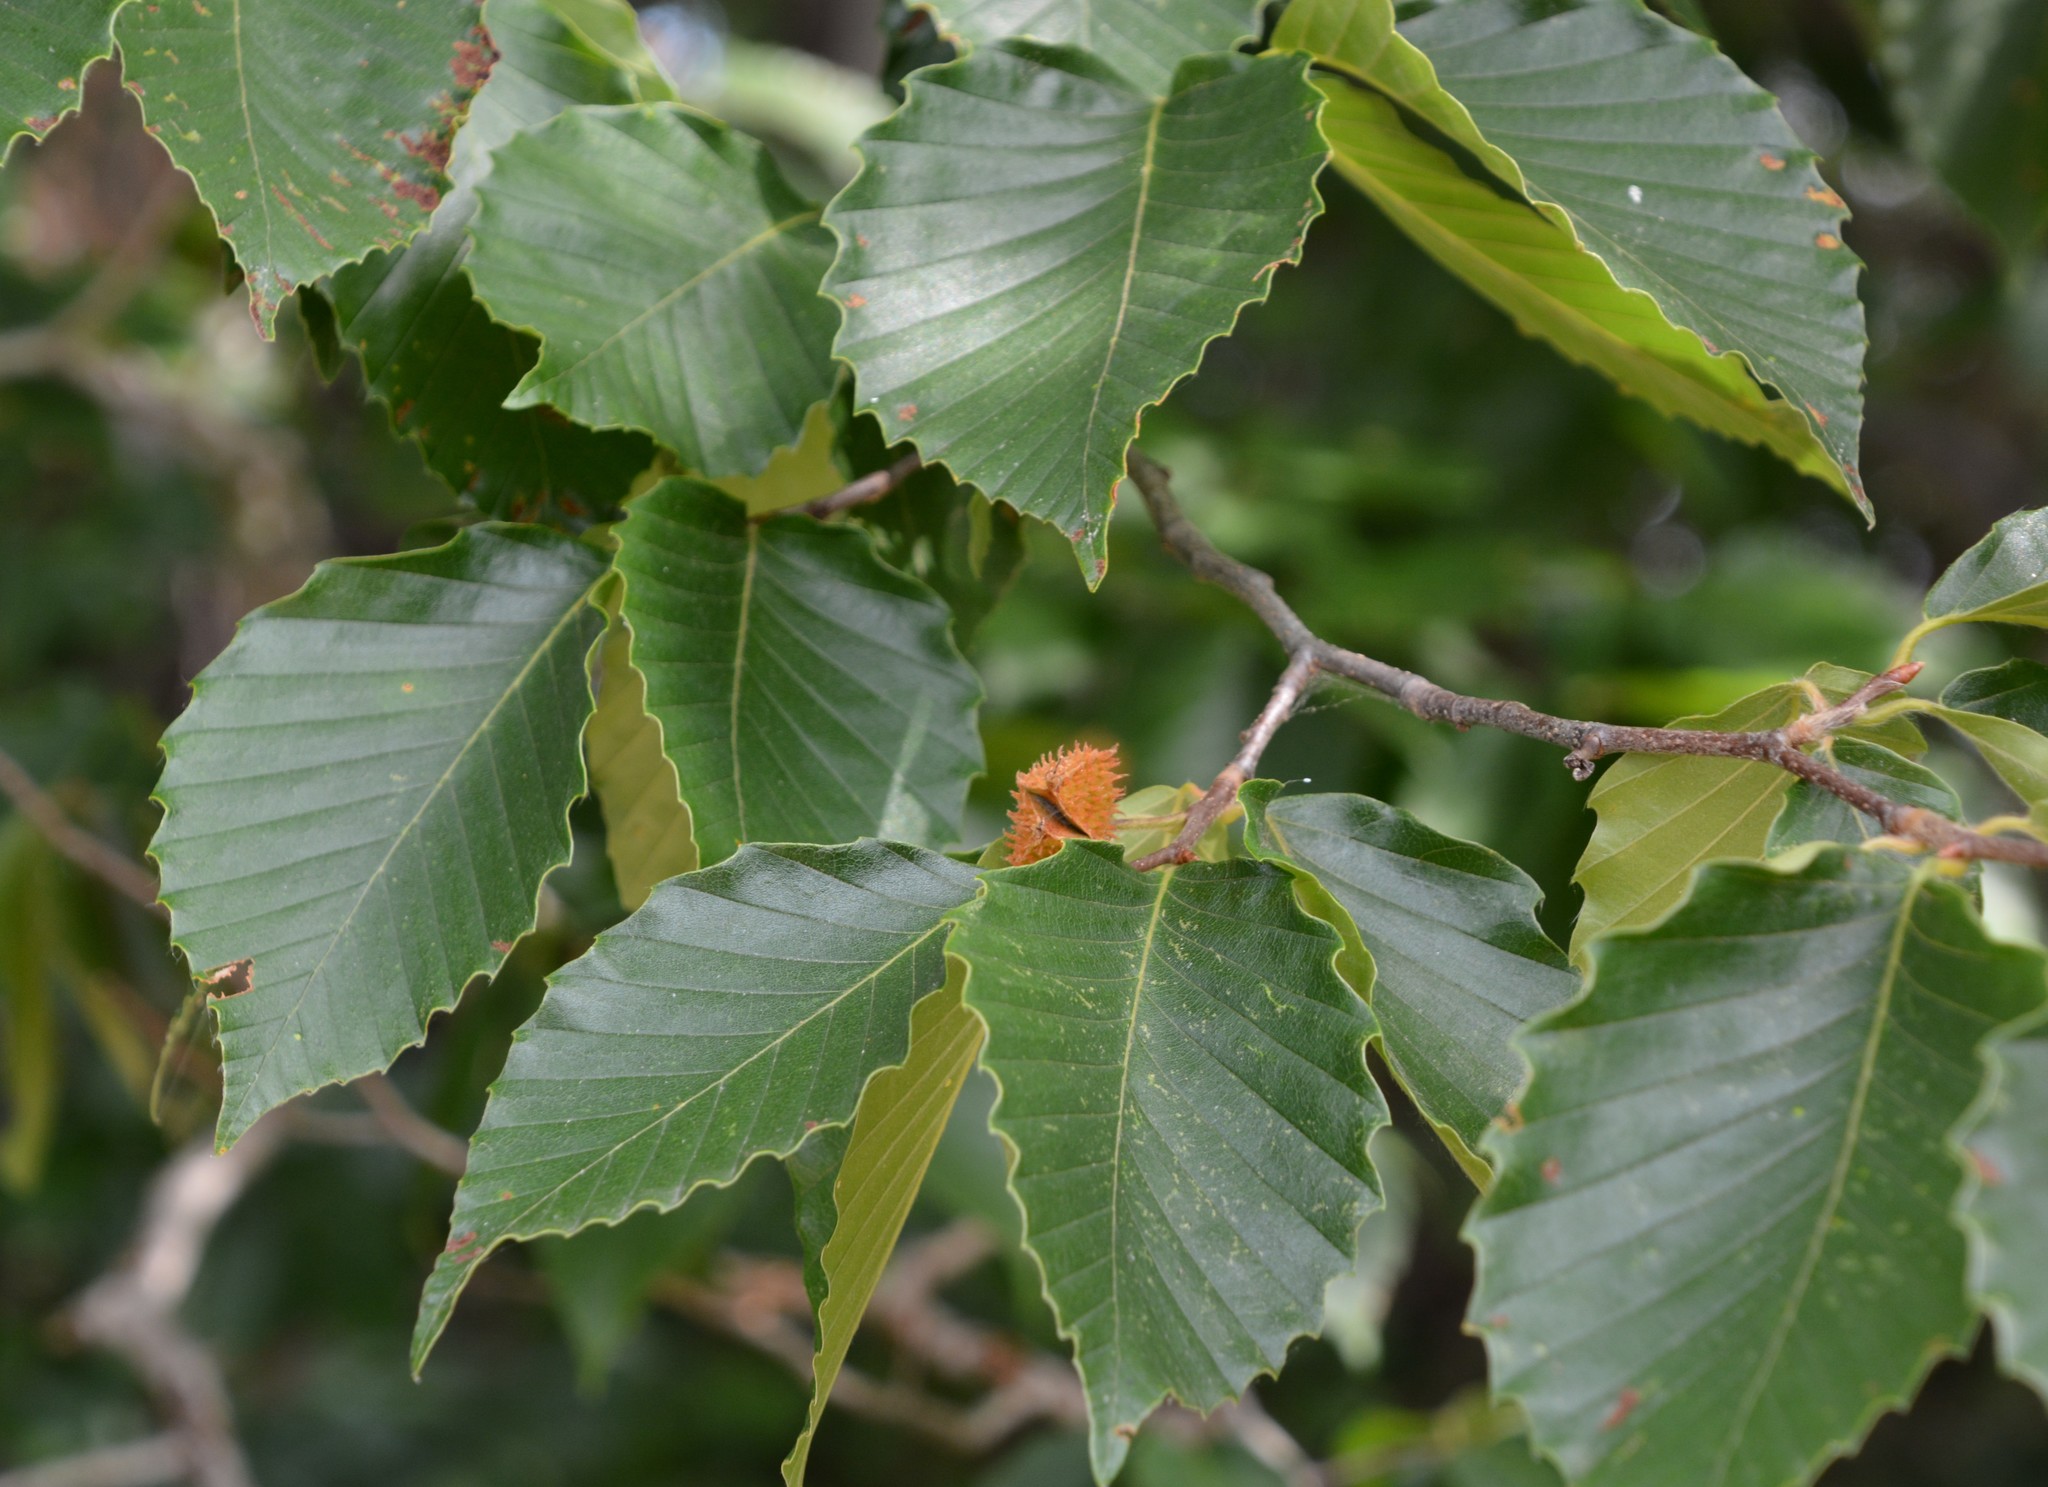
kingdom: Plantae
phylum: Tracheophyta
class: Magnoliopsida
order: Fagales
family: Fagaceae
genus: Fagus
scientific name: Fagus grandifolia
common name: American beech
